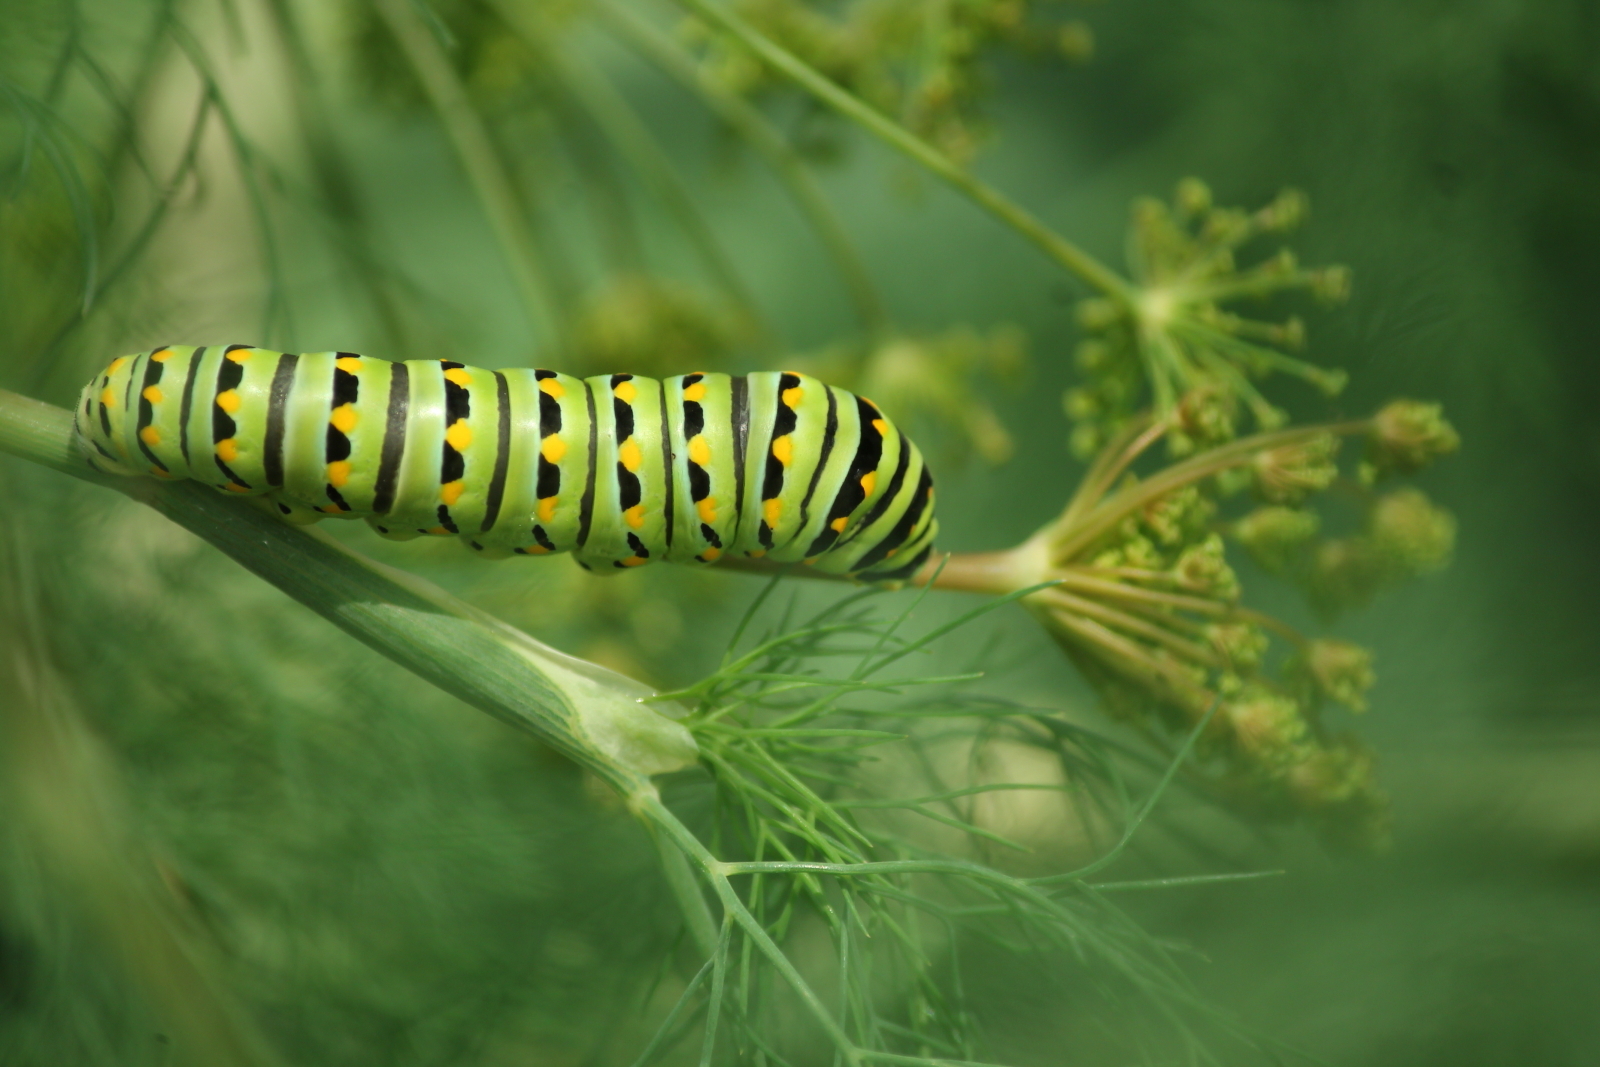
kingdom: Animalia
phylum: Arthropoda
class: Insecta
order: Lepidoptera
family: Papilionidae
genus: Papilio
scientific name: Papilio polyxenes
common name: Black swallowtail
